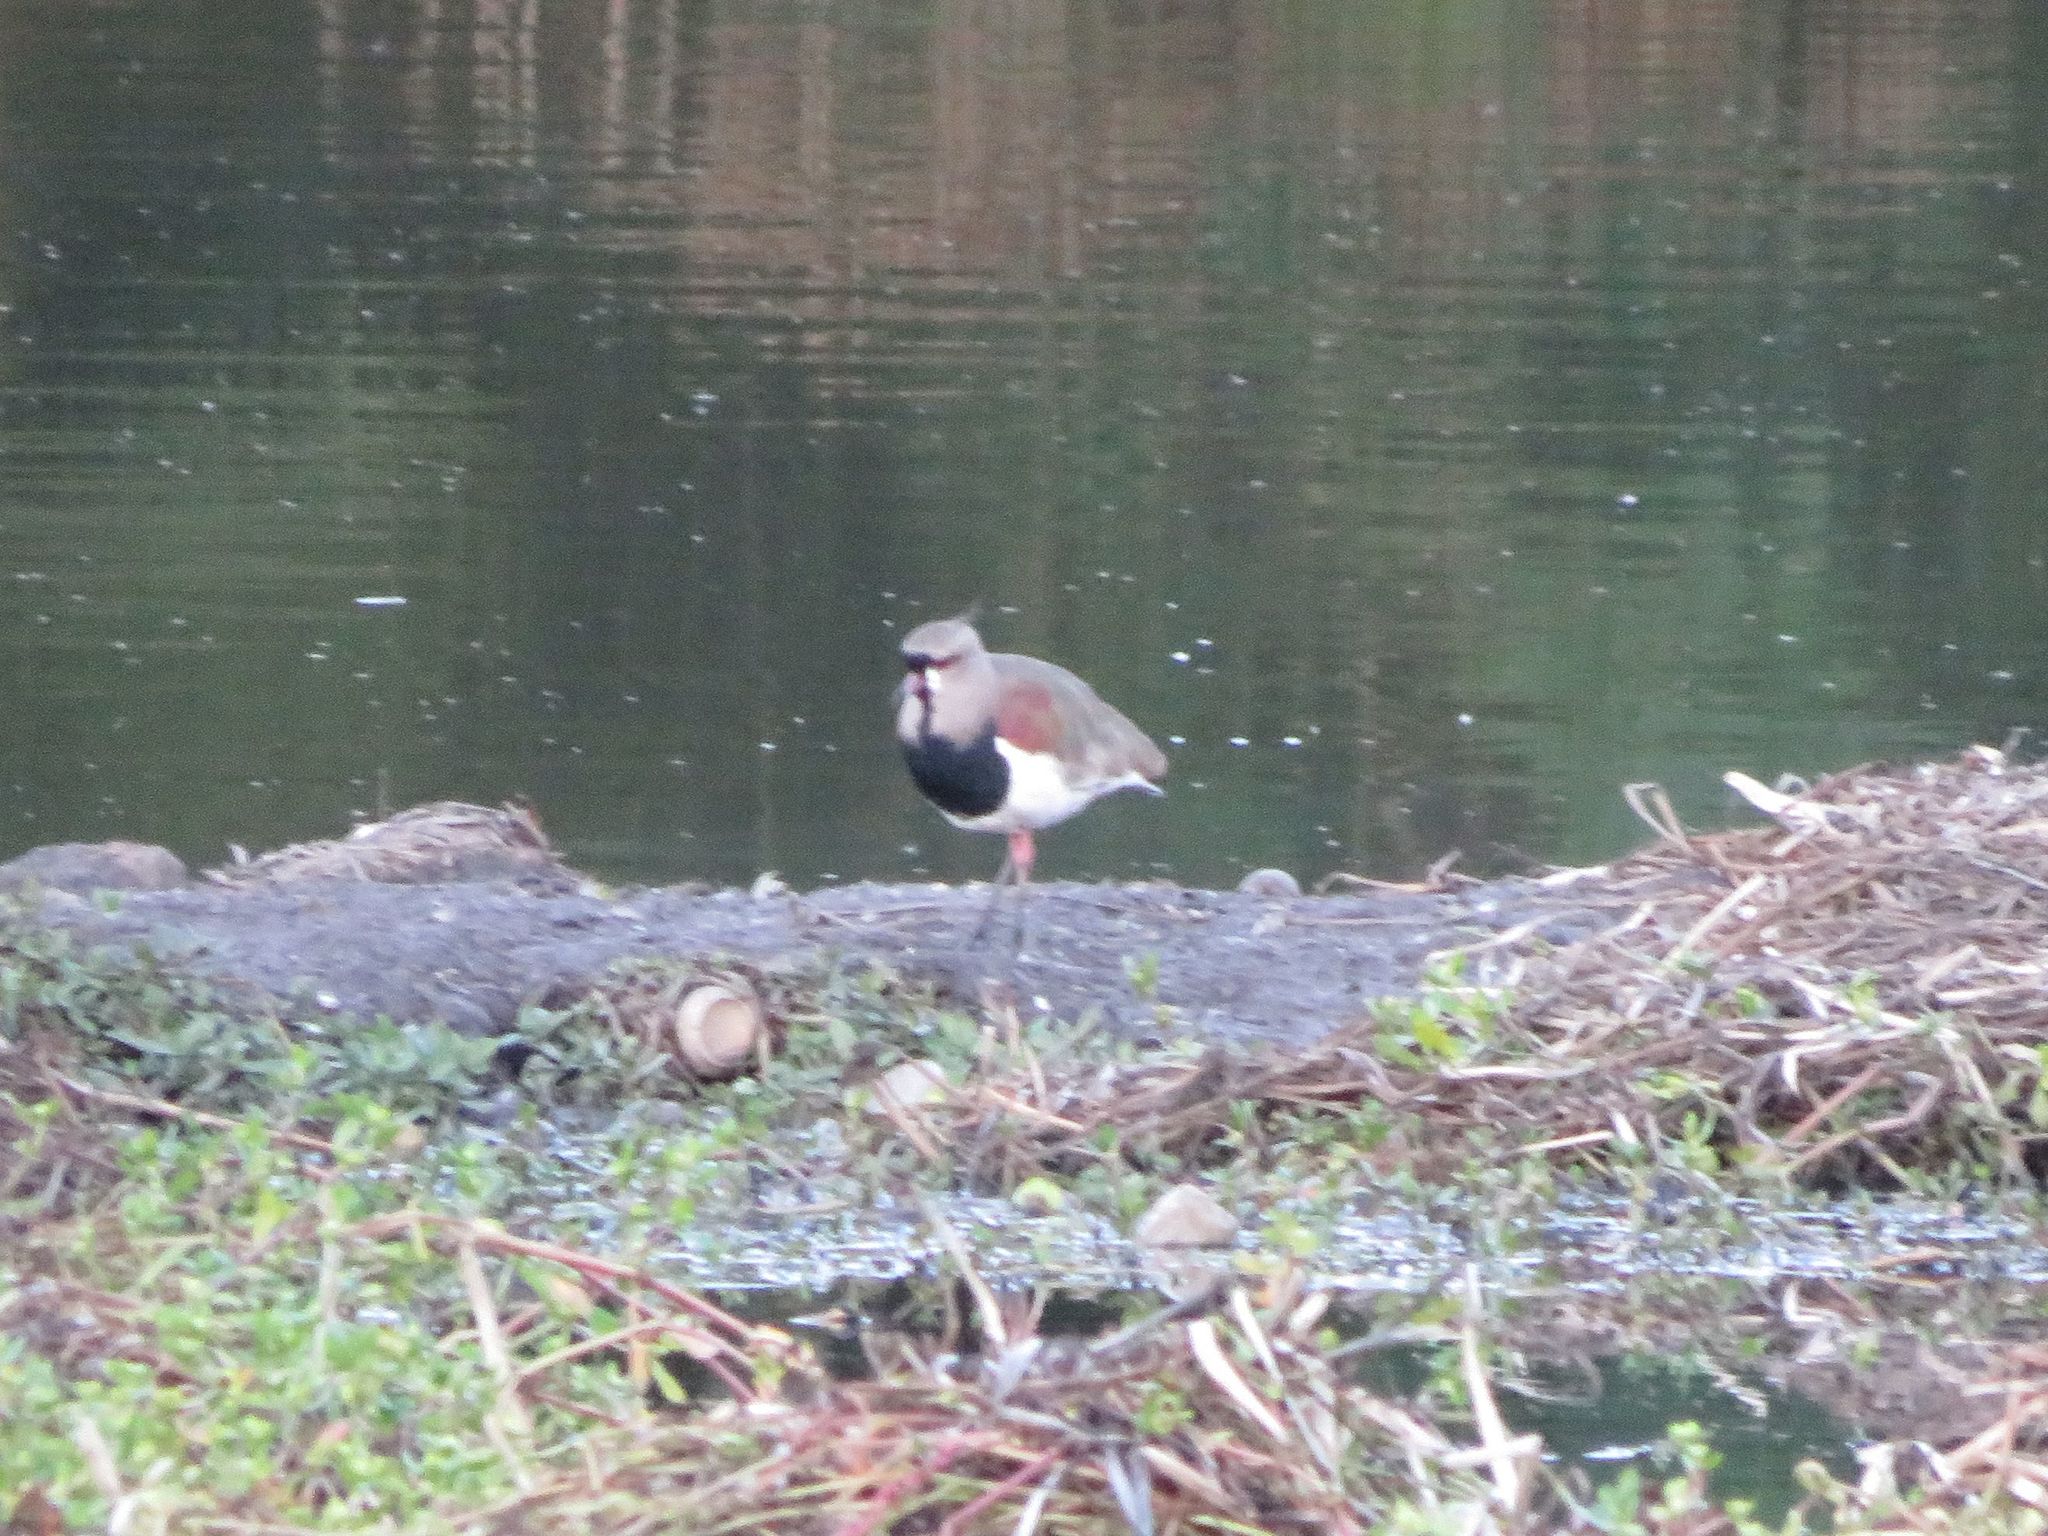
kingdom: Animalia
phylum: Chordata
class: Aves
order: Charadriiformes
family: Charadriidae
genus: Vanellus
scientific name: Vanellus chilensis
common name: Southern lapwing
